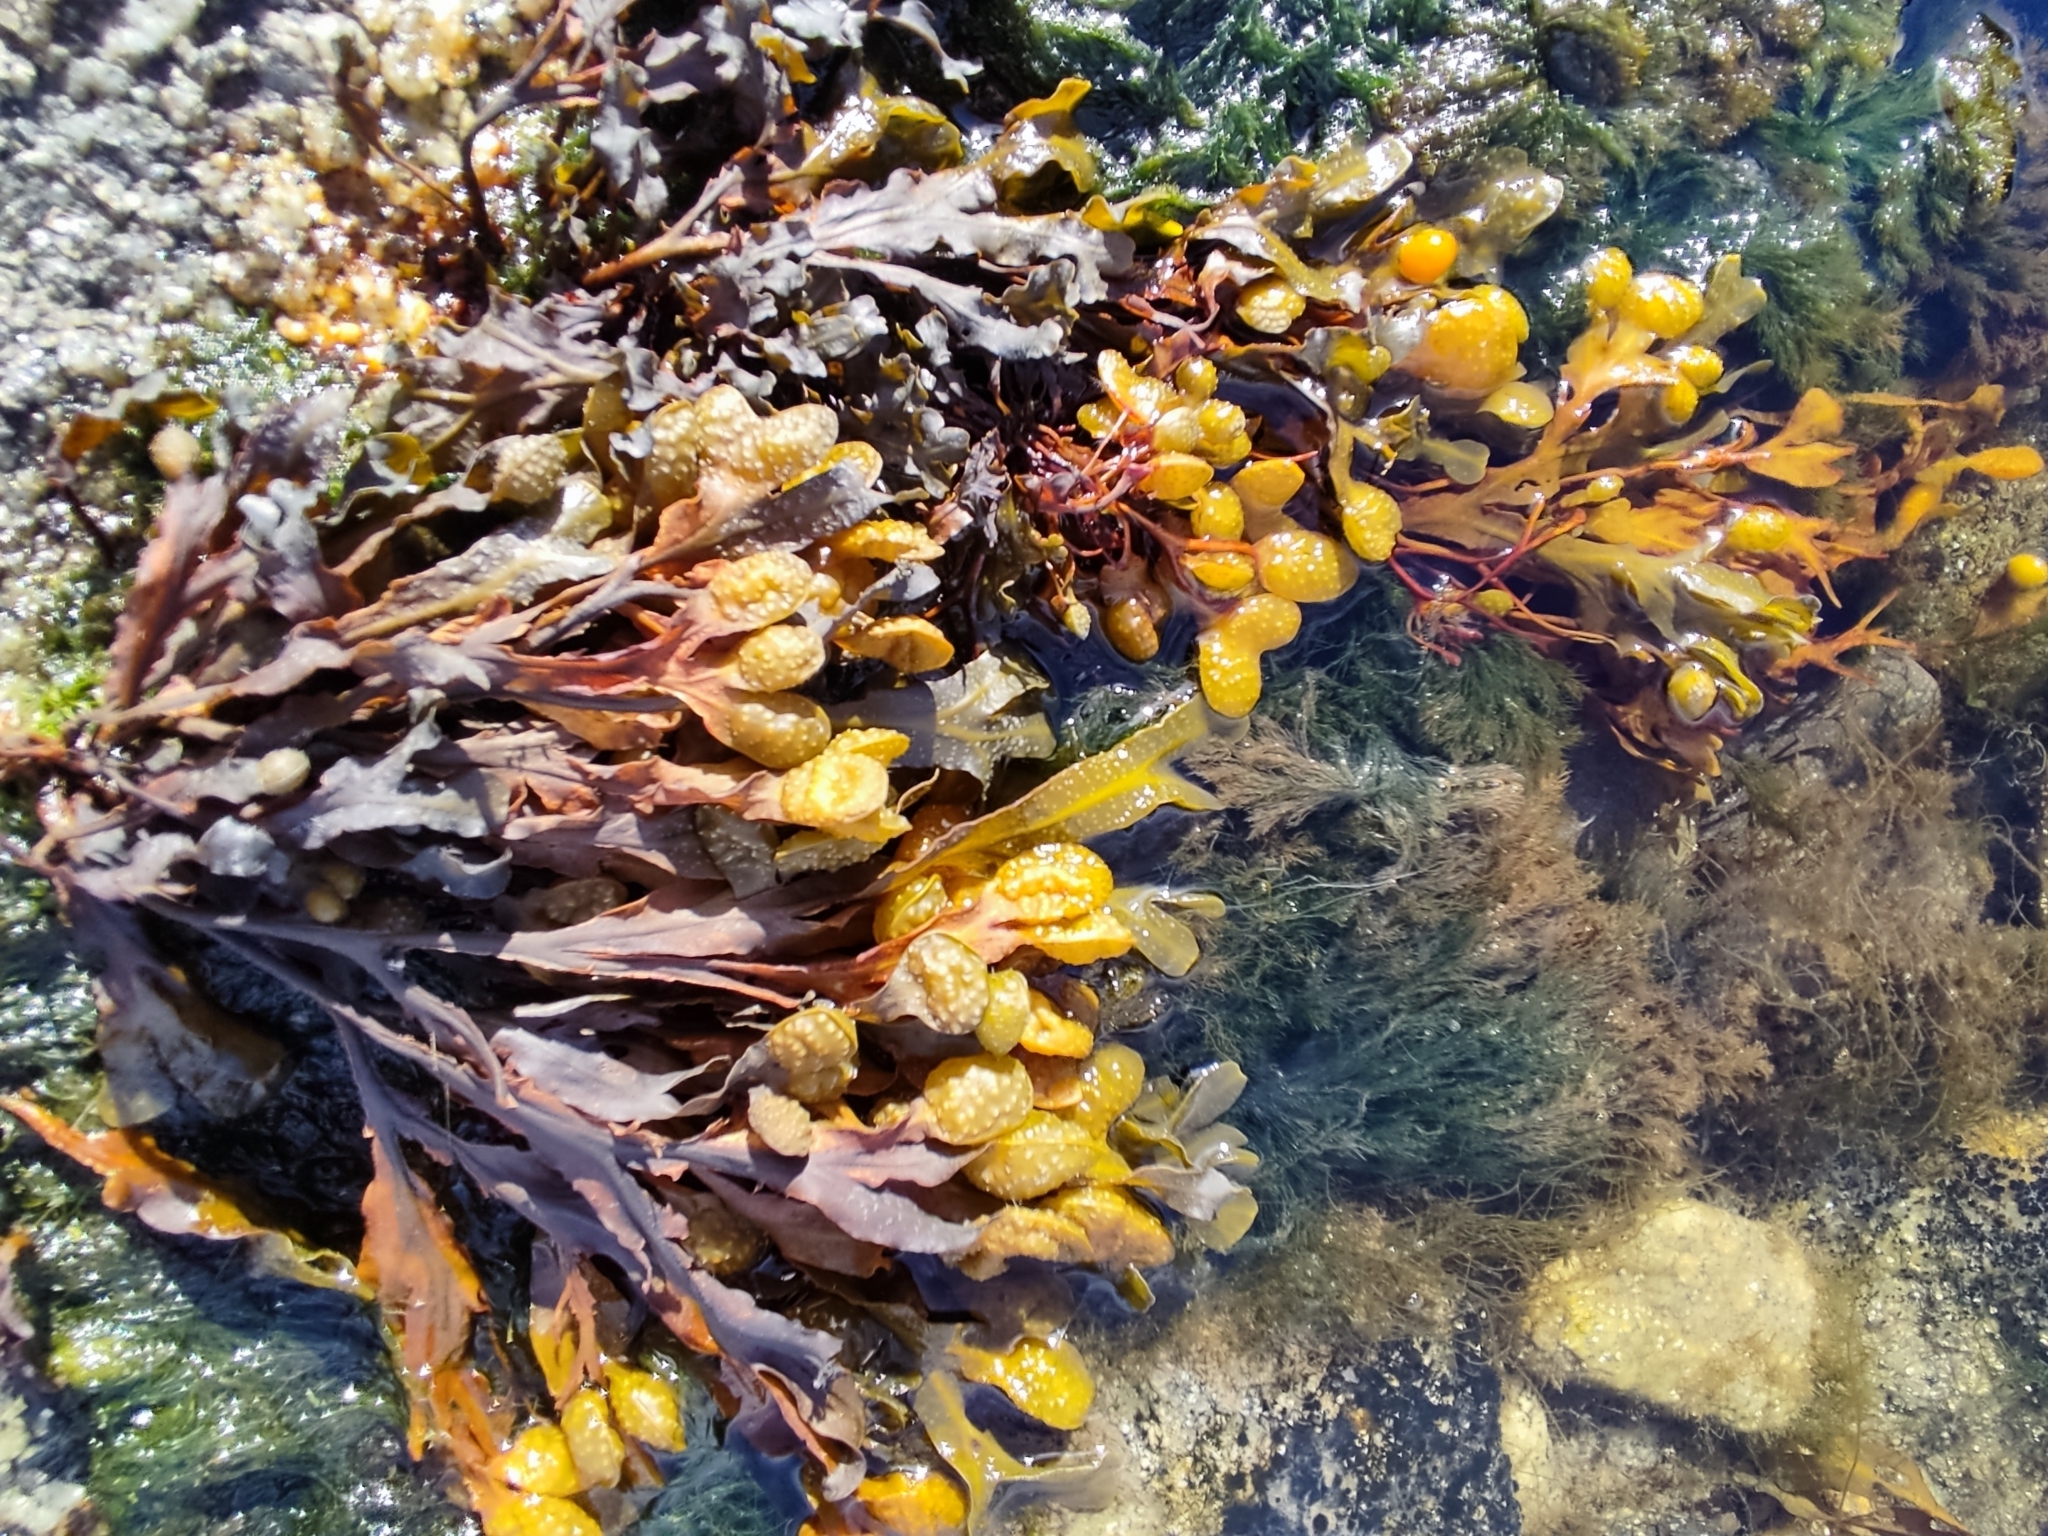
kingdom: Chromista
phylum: Ochrophyta
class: Phaeophyceae
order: Fucales
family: Fucaceae
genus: Fucus
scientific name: Fucus spiralis
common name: Spiral wrack
